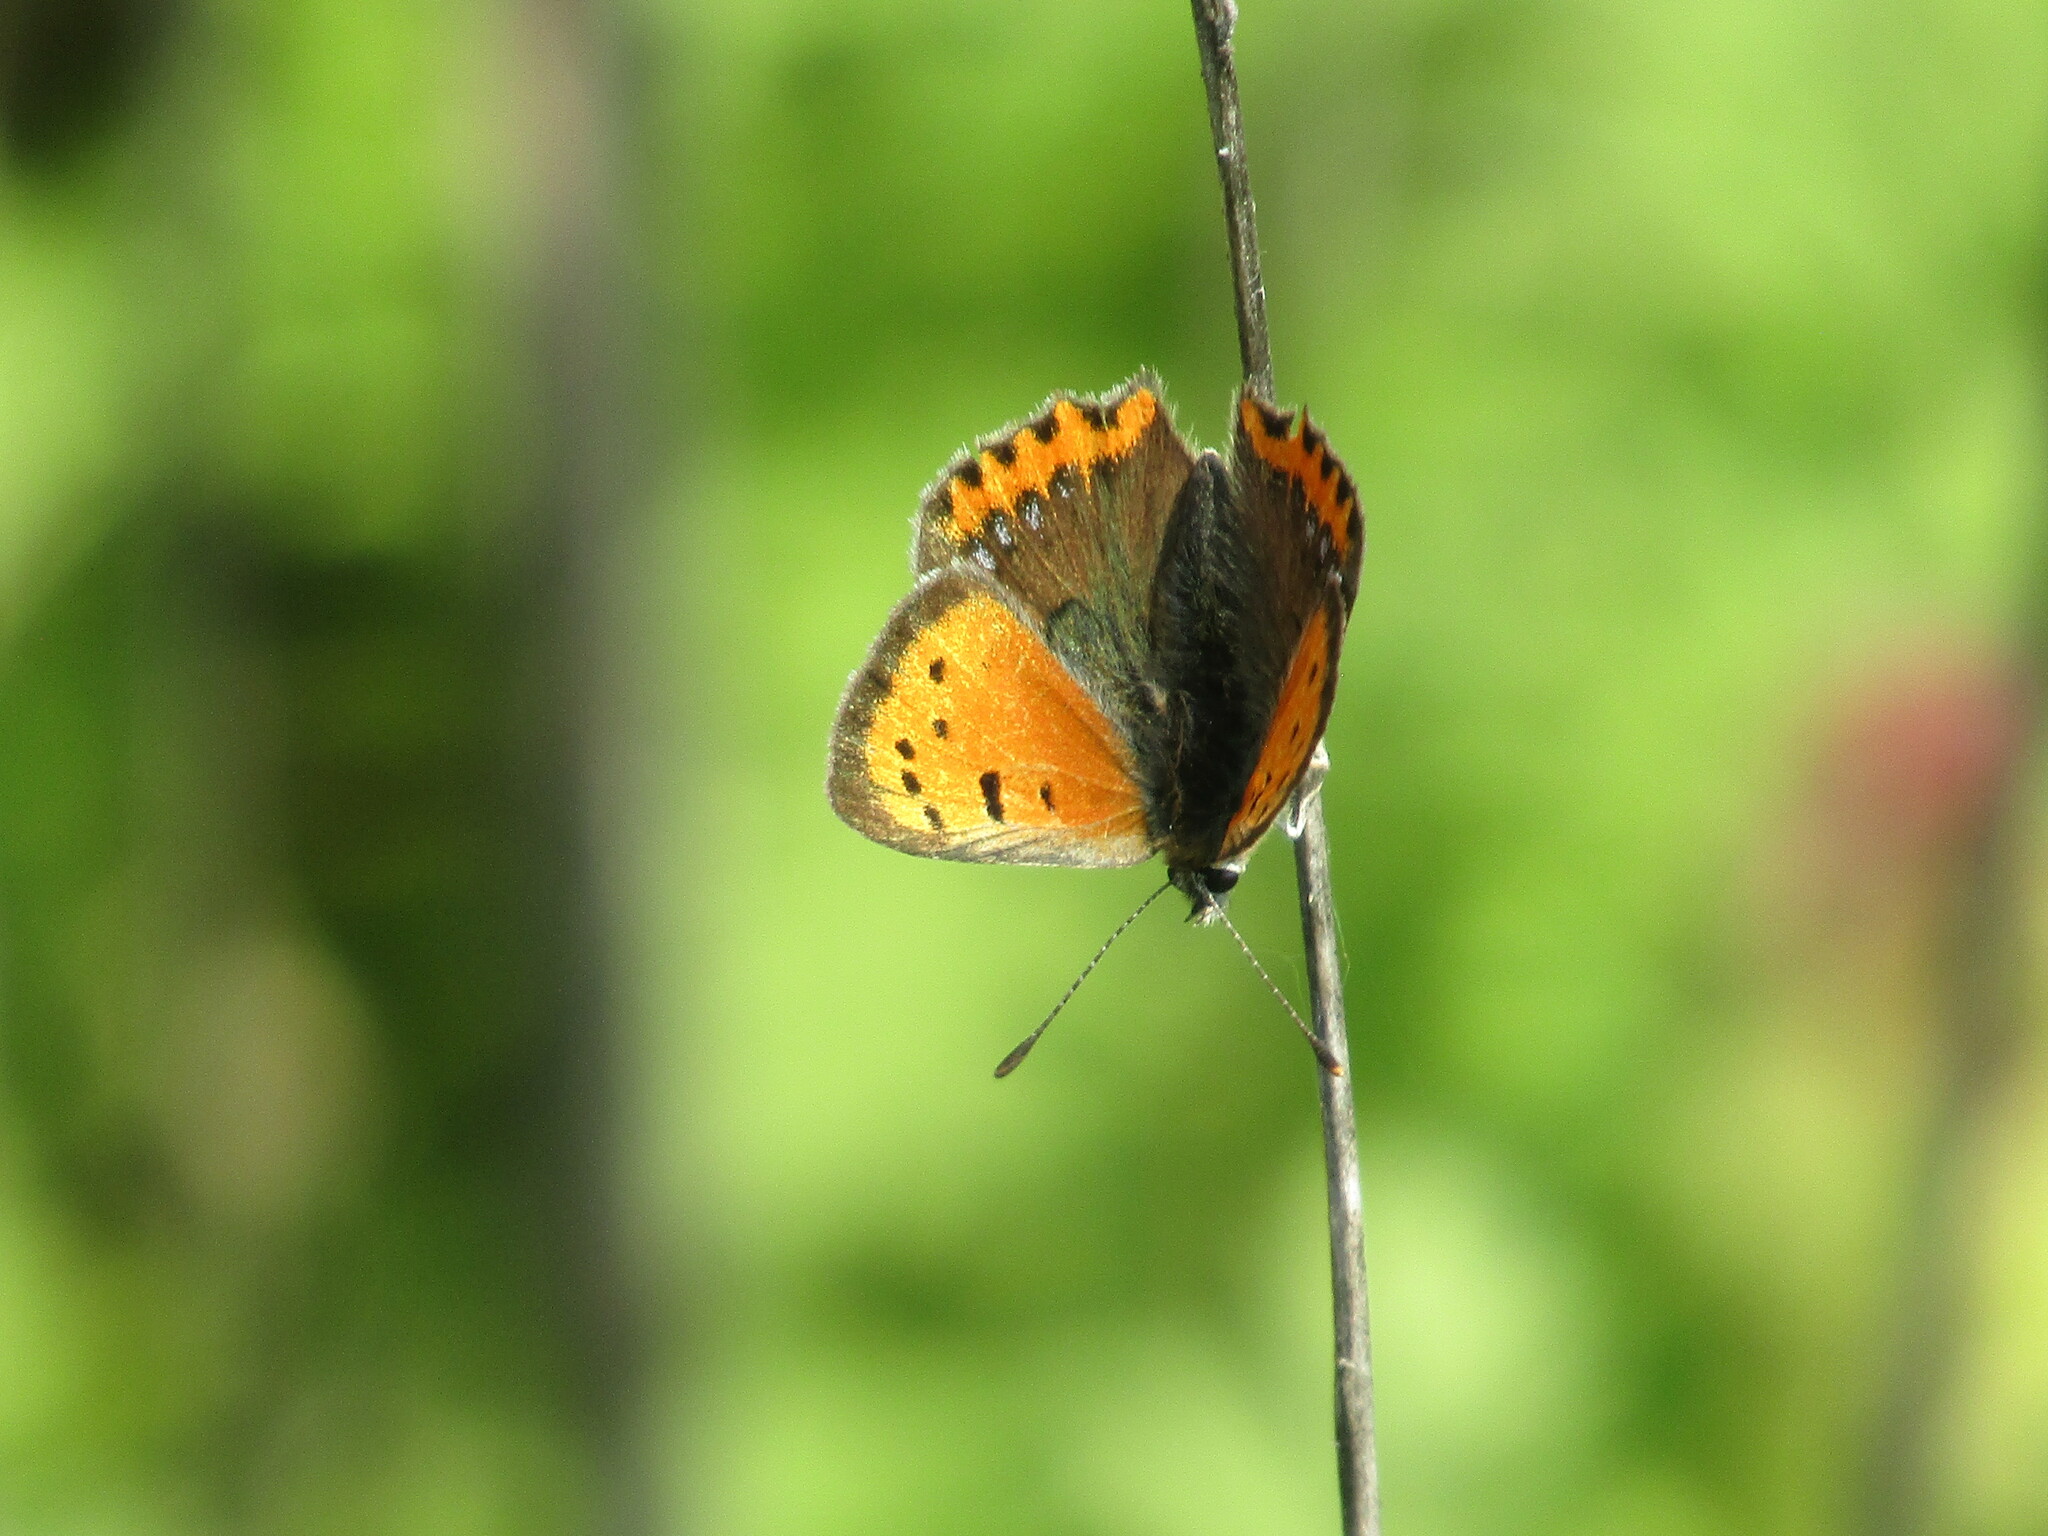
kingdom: Animalia
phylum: Arthropoda
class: Insecta
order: Lepidoptera
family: Lycaenidae
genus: Lycaena
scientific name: Lycaena phlaeas
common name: Small copper
